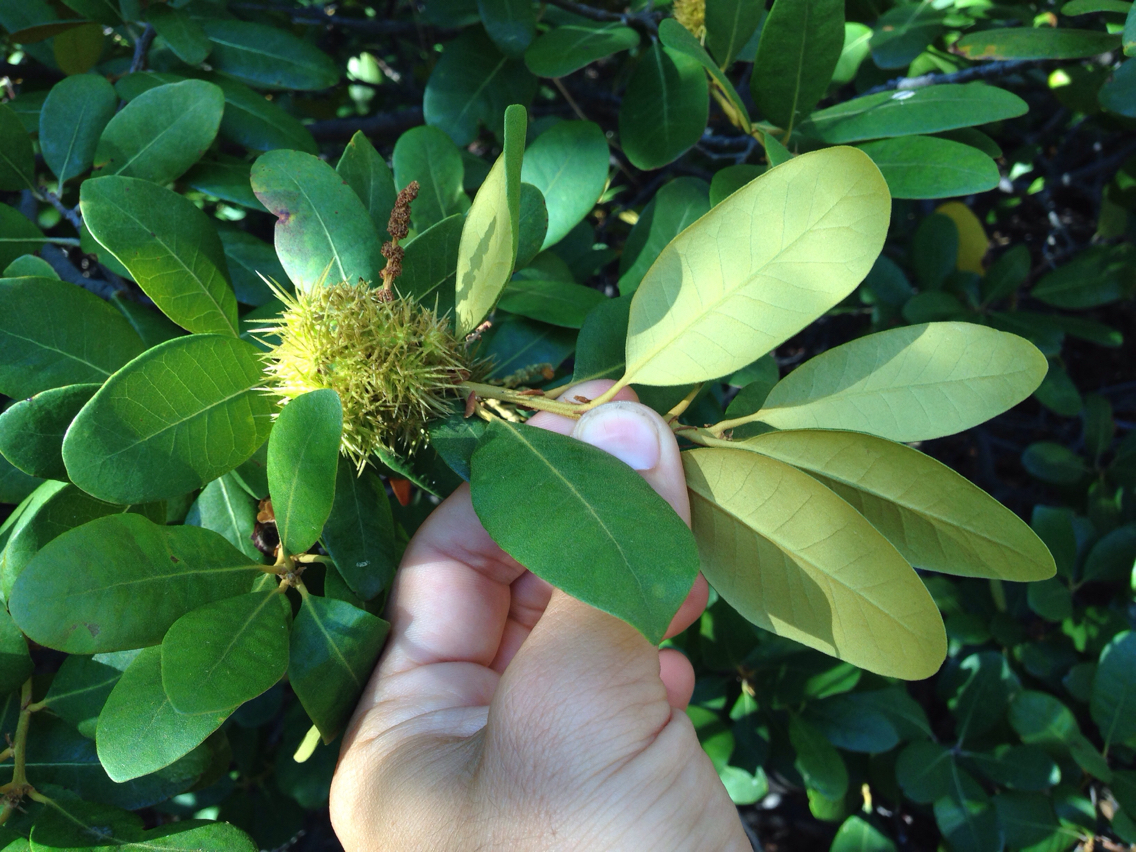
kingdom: Plantae
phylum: Tracheophyta
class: Magnoliopsida
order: Fagales
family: Fagaceae
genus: Chrysolepis
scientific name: Chrysolepis sempervirens
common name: Bush chinquapin
